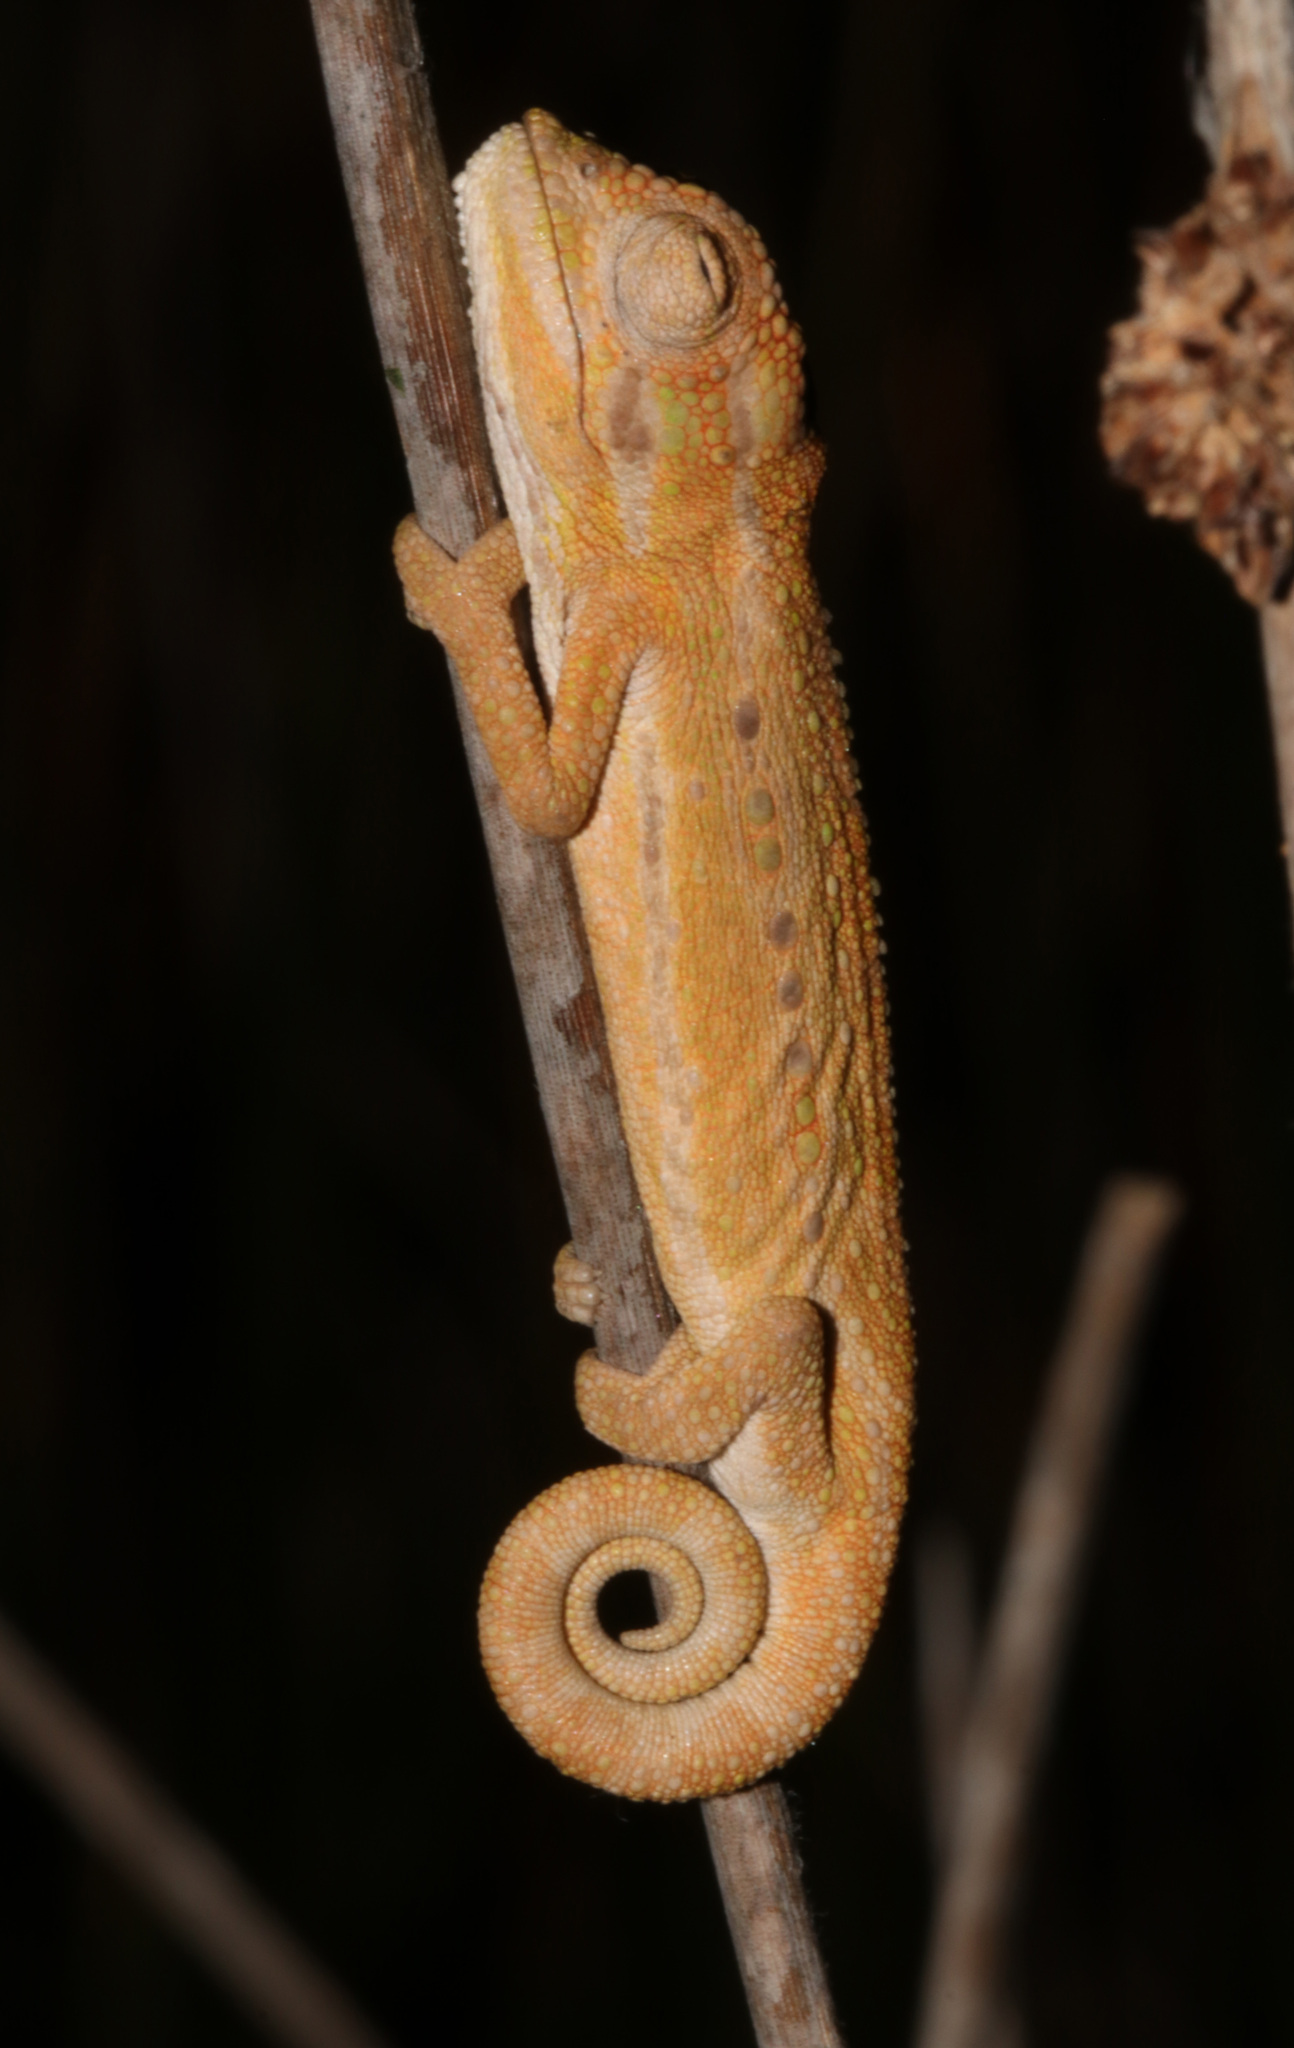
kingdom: Animalia
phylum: Chordata
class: Squamata
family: Chamaeleonidae
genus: Bradypodion
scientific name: Bradypodion pumilum
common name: Cape dwarf chameleon
